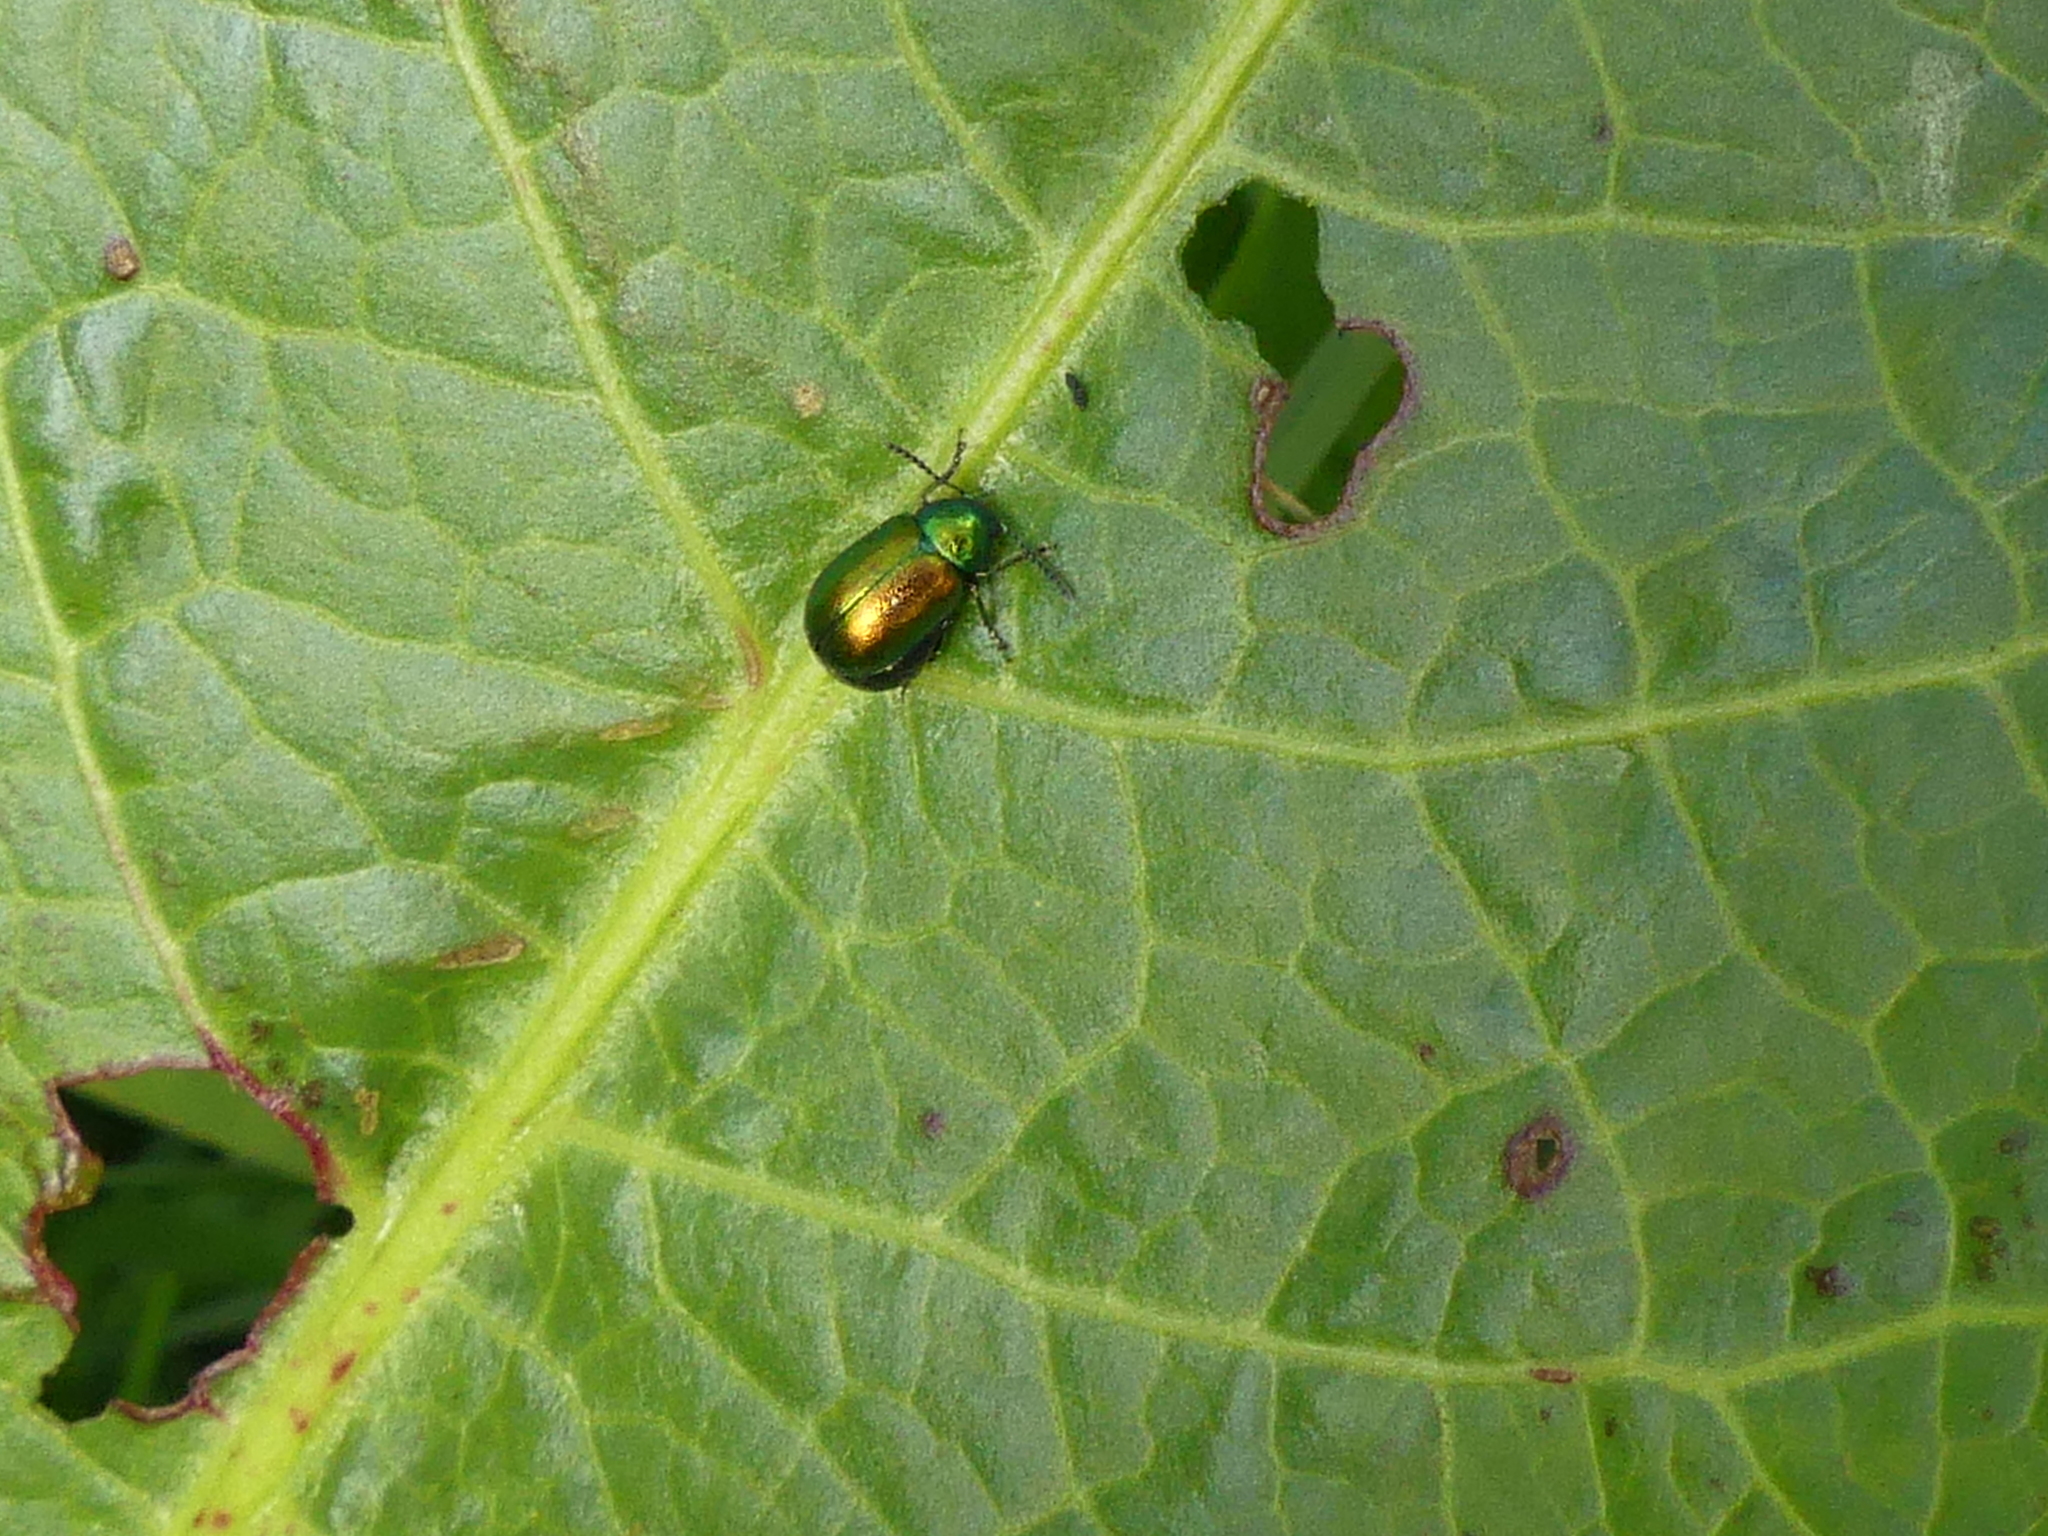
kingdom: Animalia
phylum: Arthropoda
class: Insecta
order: Coleoptera
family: Chrysomelidae
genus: Gastrophysa
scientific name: Gastrophysa viridula
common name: Green dock beetle
